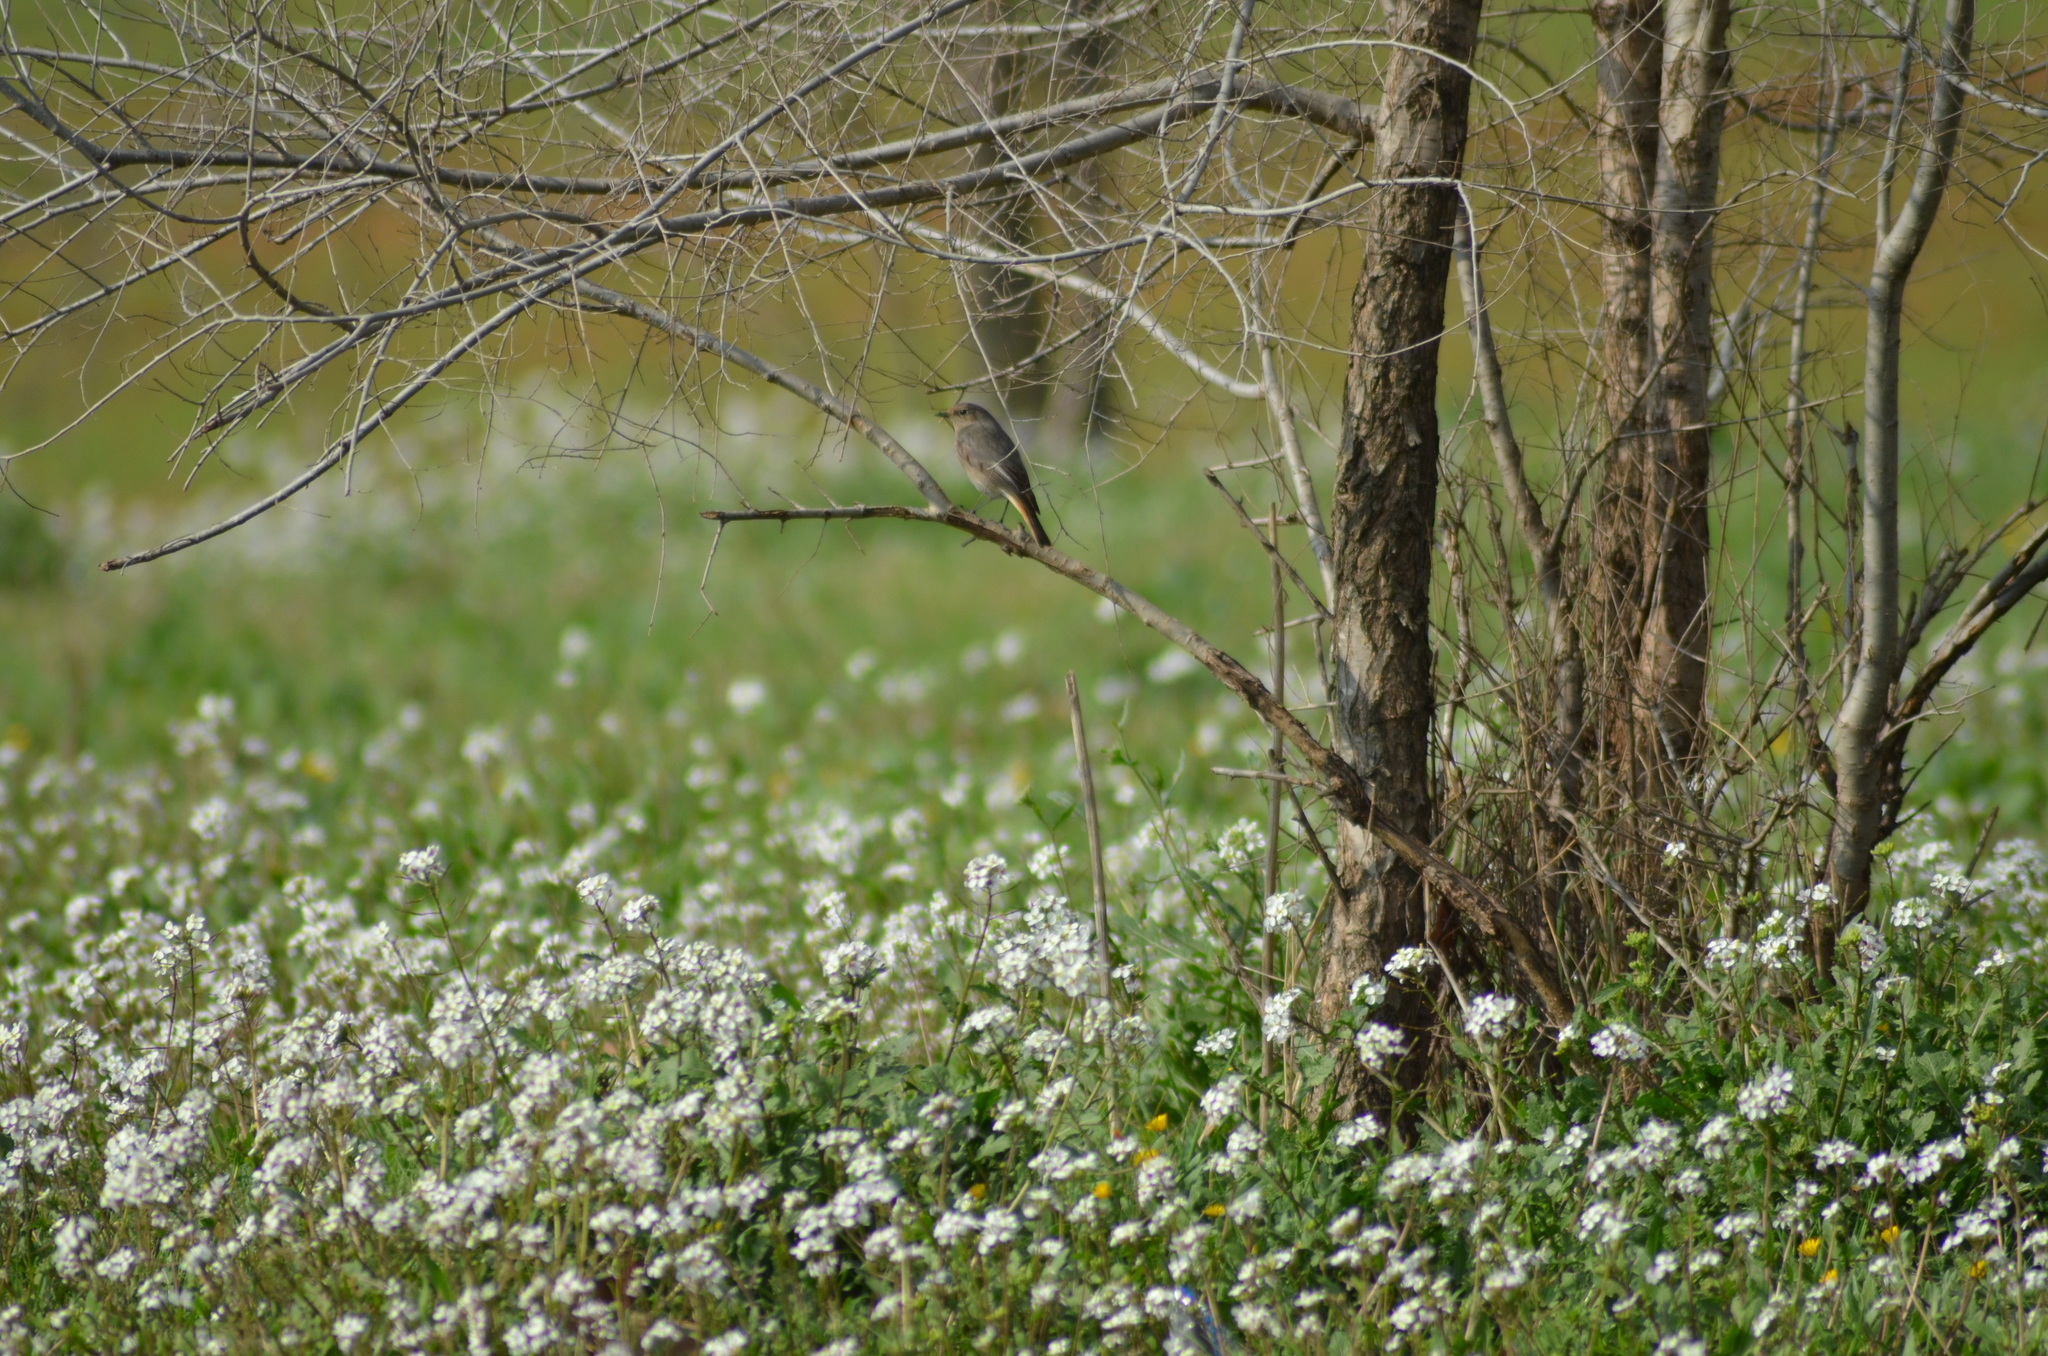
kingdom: Animalia
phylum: Chordata
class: Aves
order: Passeriformes
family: Muscicapidae
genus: Phoenicurus
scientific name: Phoenicurus ochruros
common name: Black redstart
